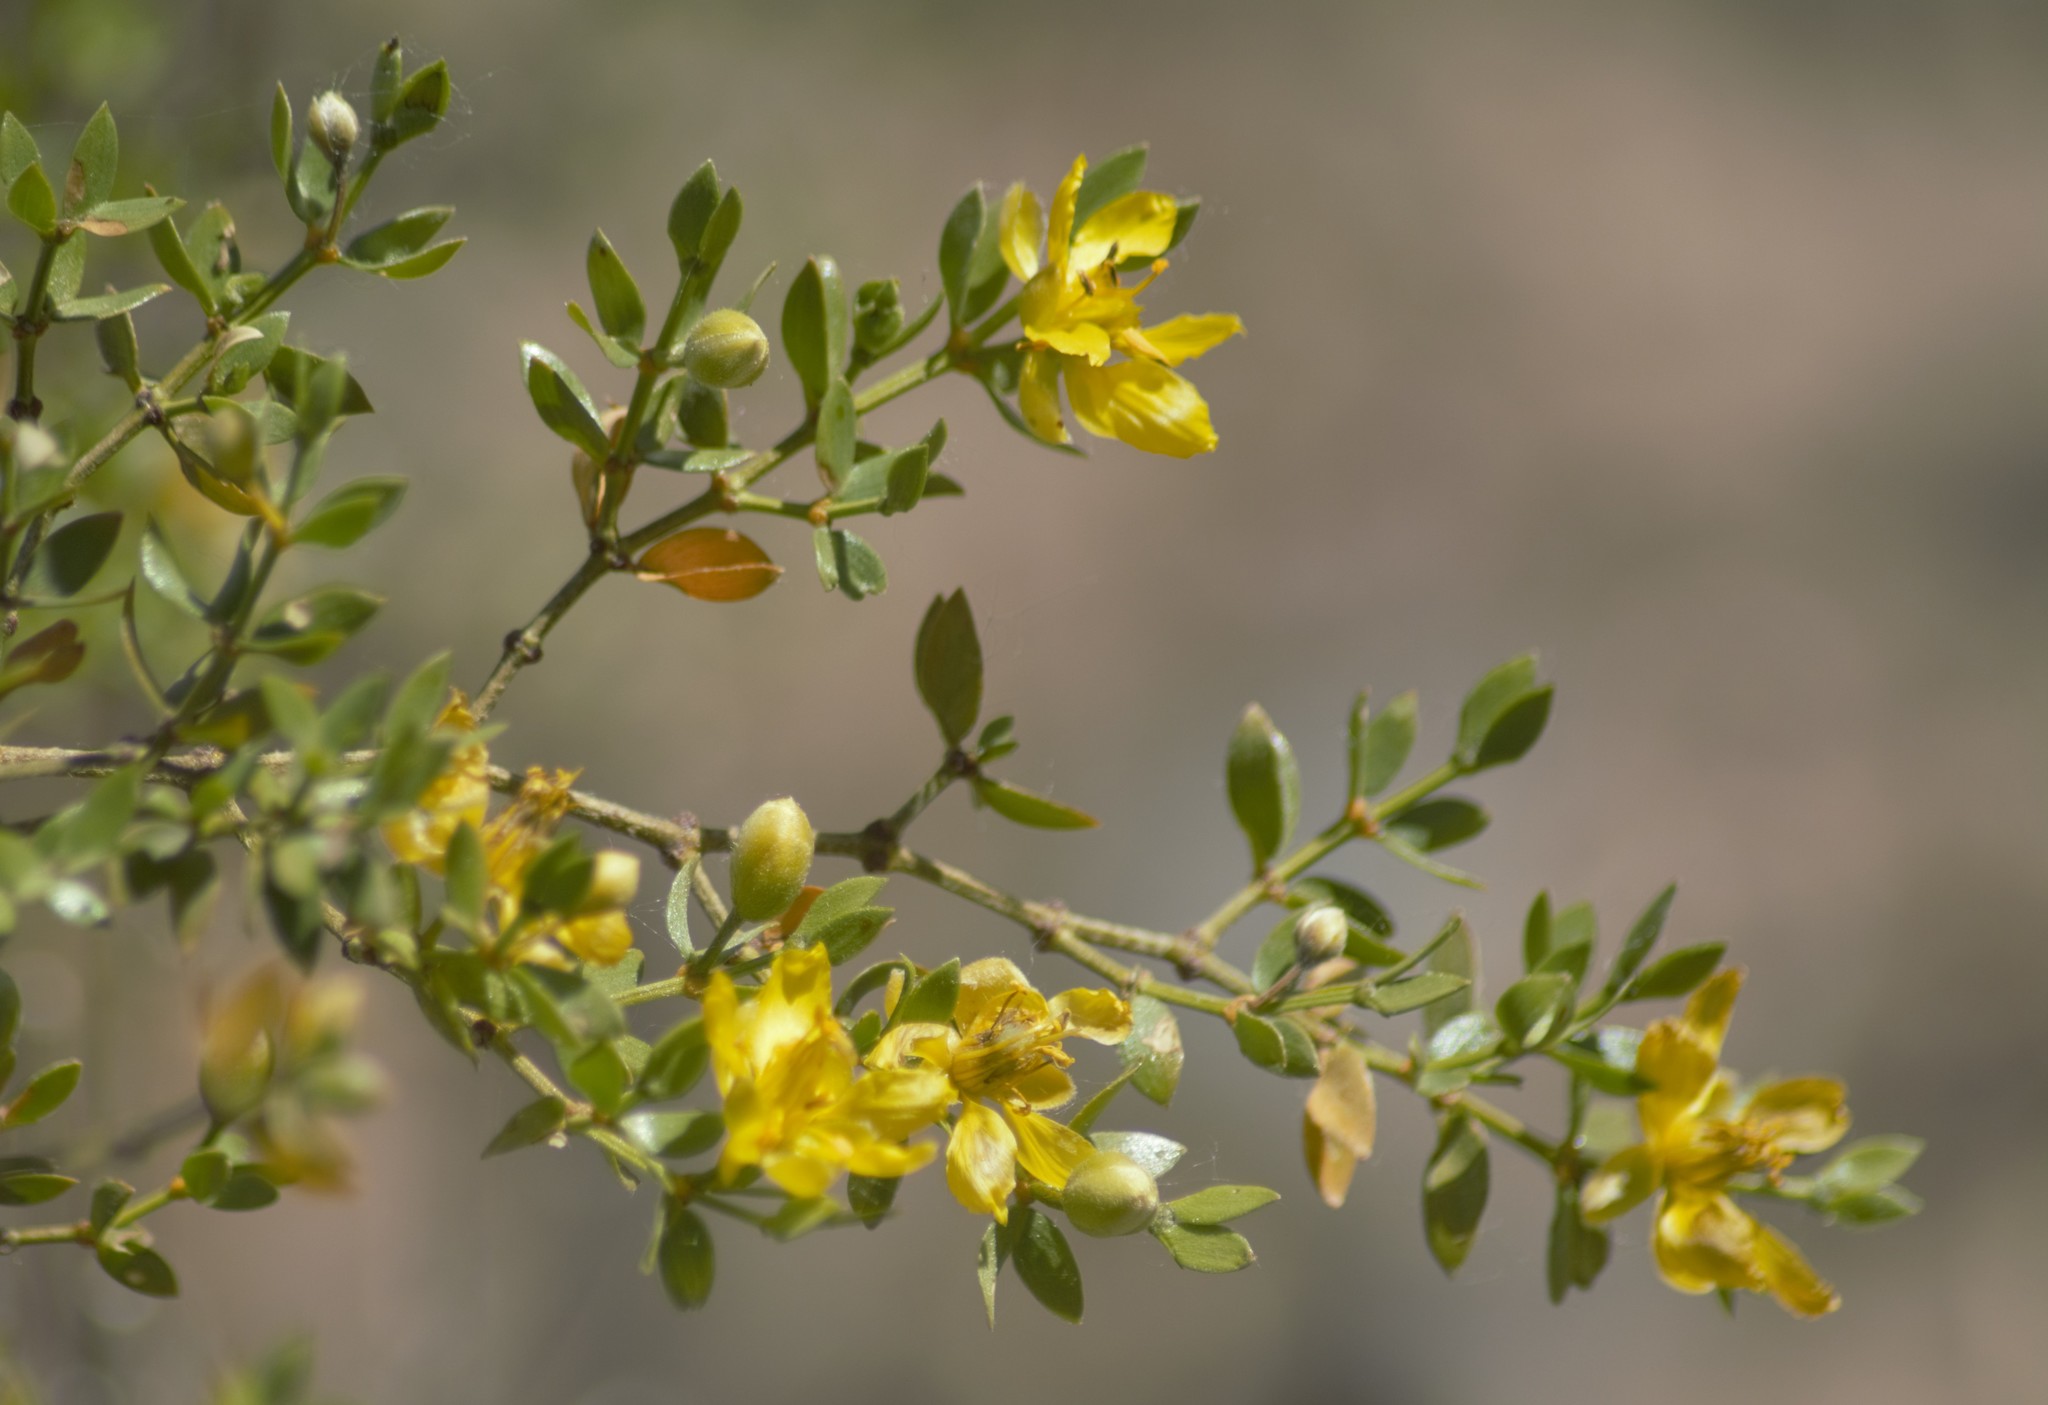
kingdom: Plantae
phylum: Tracheophyta
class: Magnoliopsida
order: Zygophyllales
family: Zygophyllaceae
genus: Larrea
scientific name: Larrea divaricata
